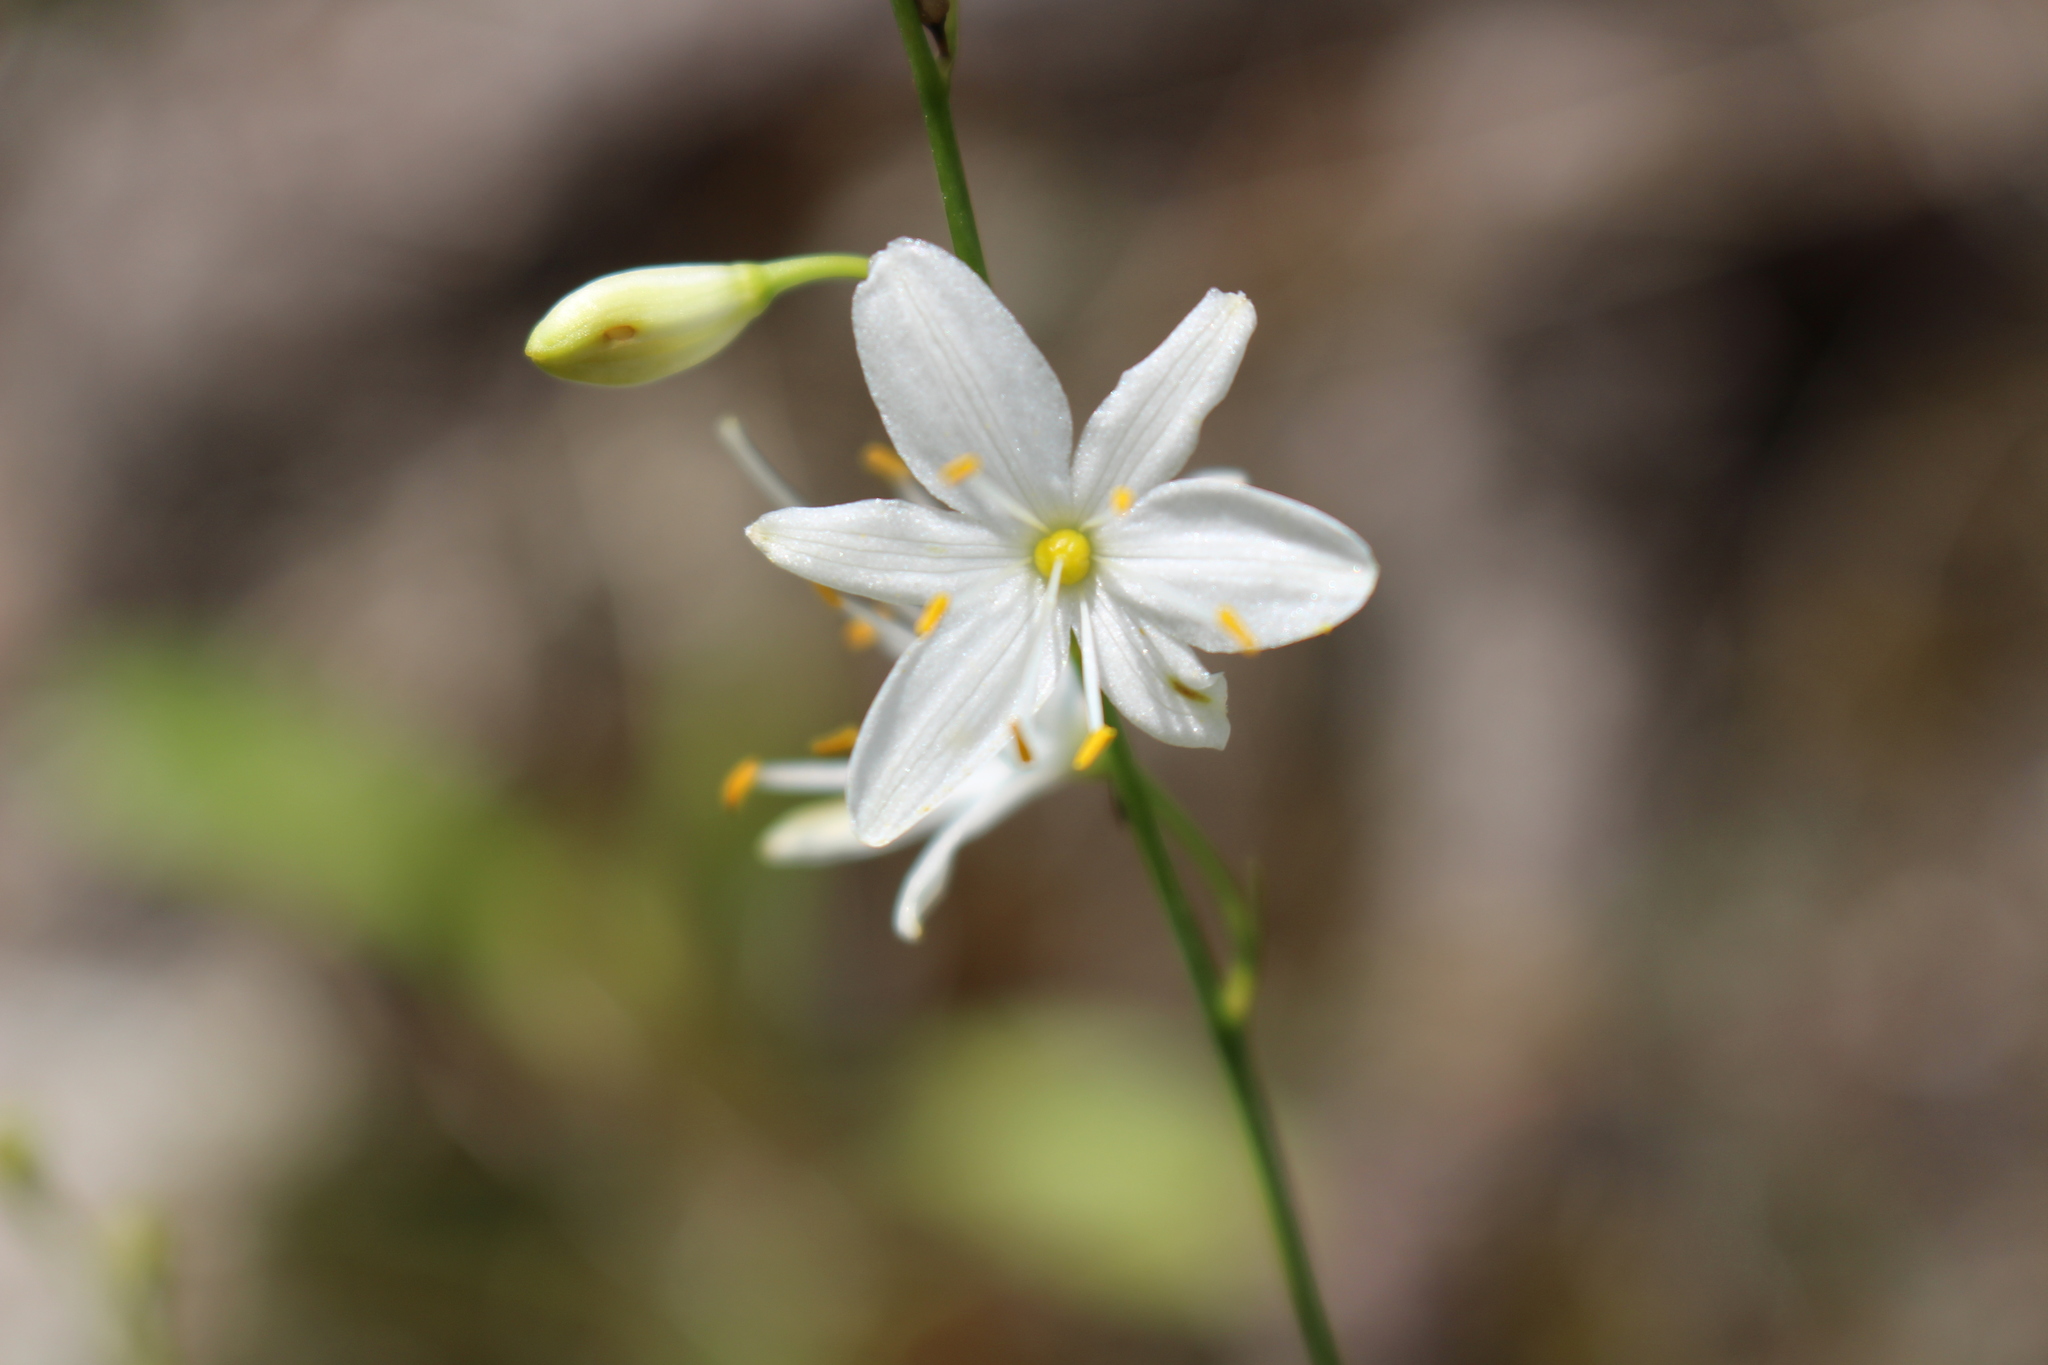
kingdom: Plantae
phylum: Tracheophyta
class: Liliopsida
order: Asparagales
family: Asparagaceae
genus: Anthericum
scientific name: Anthericum ramosum
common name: Branched st. bernard's-lily
